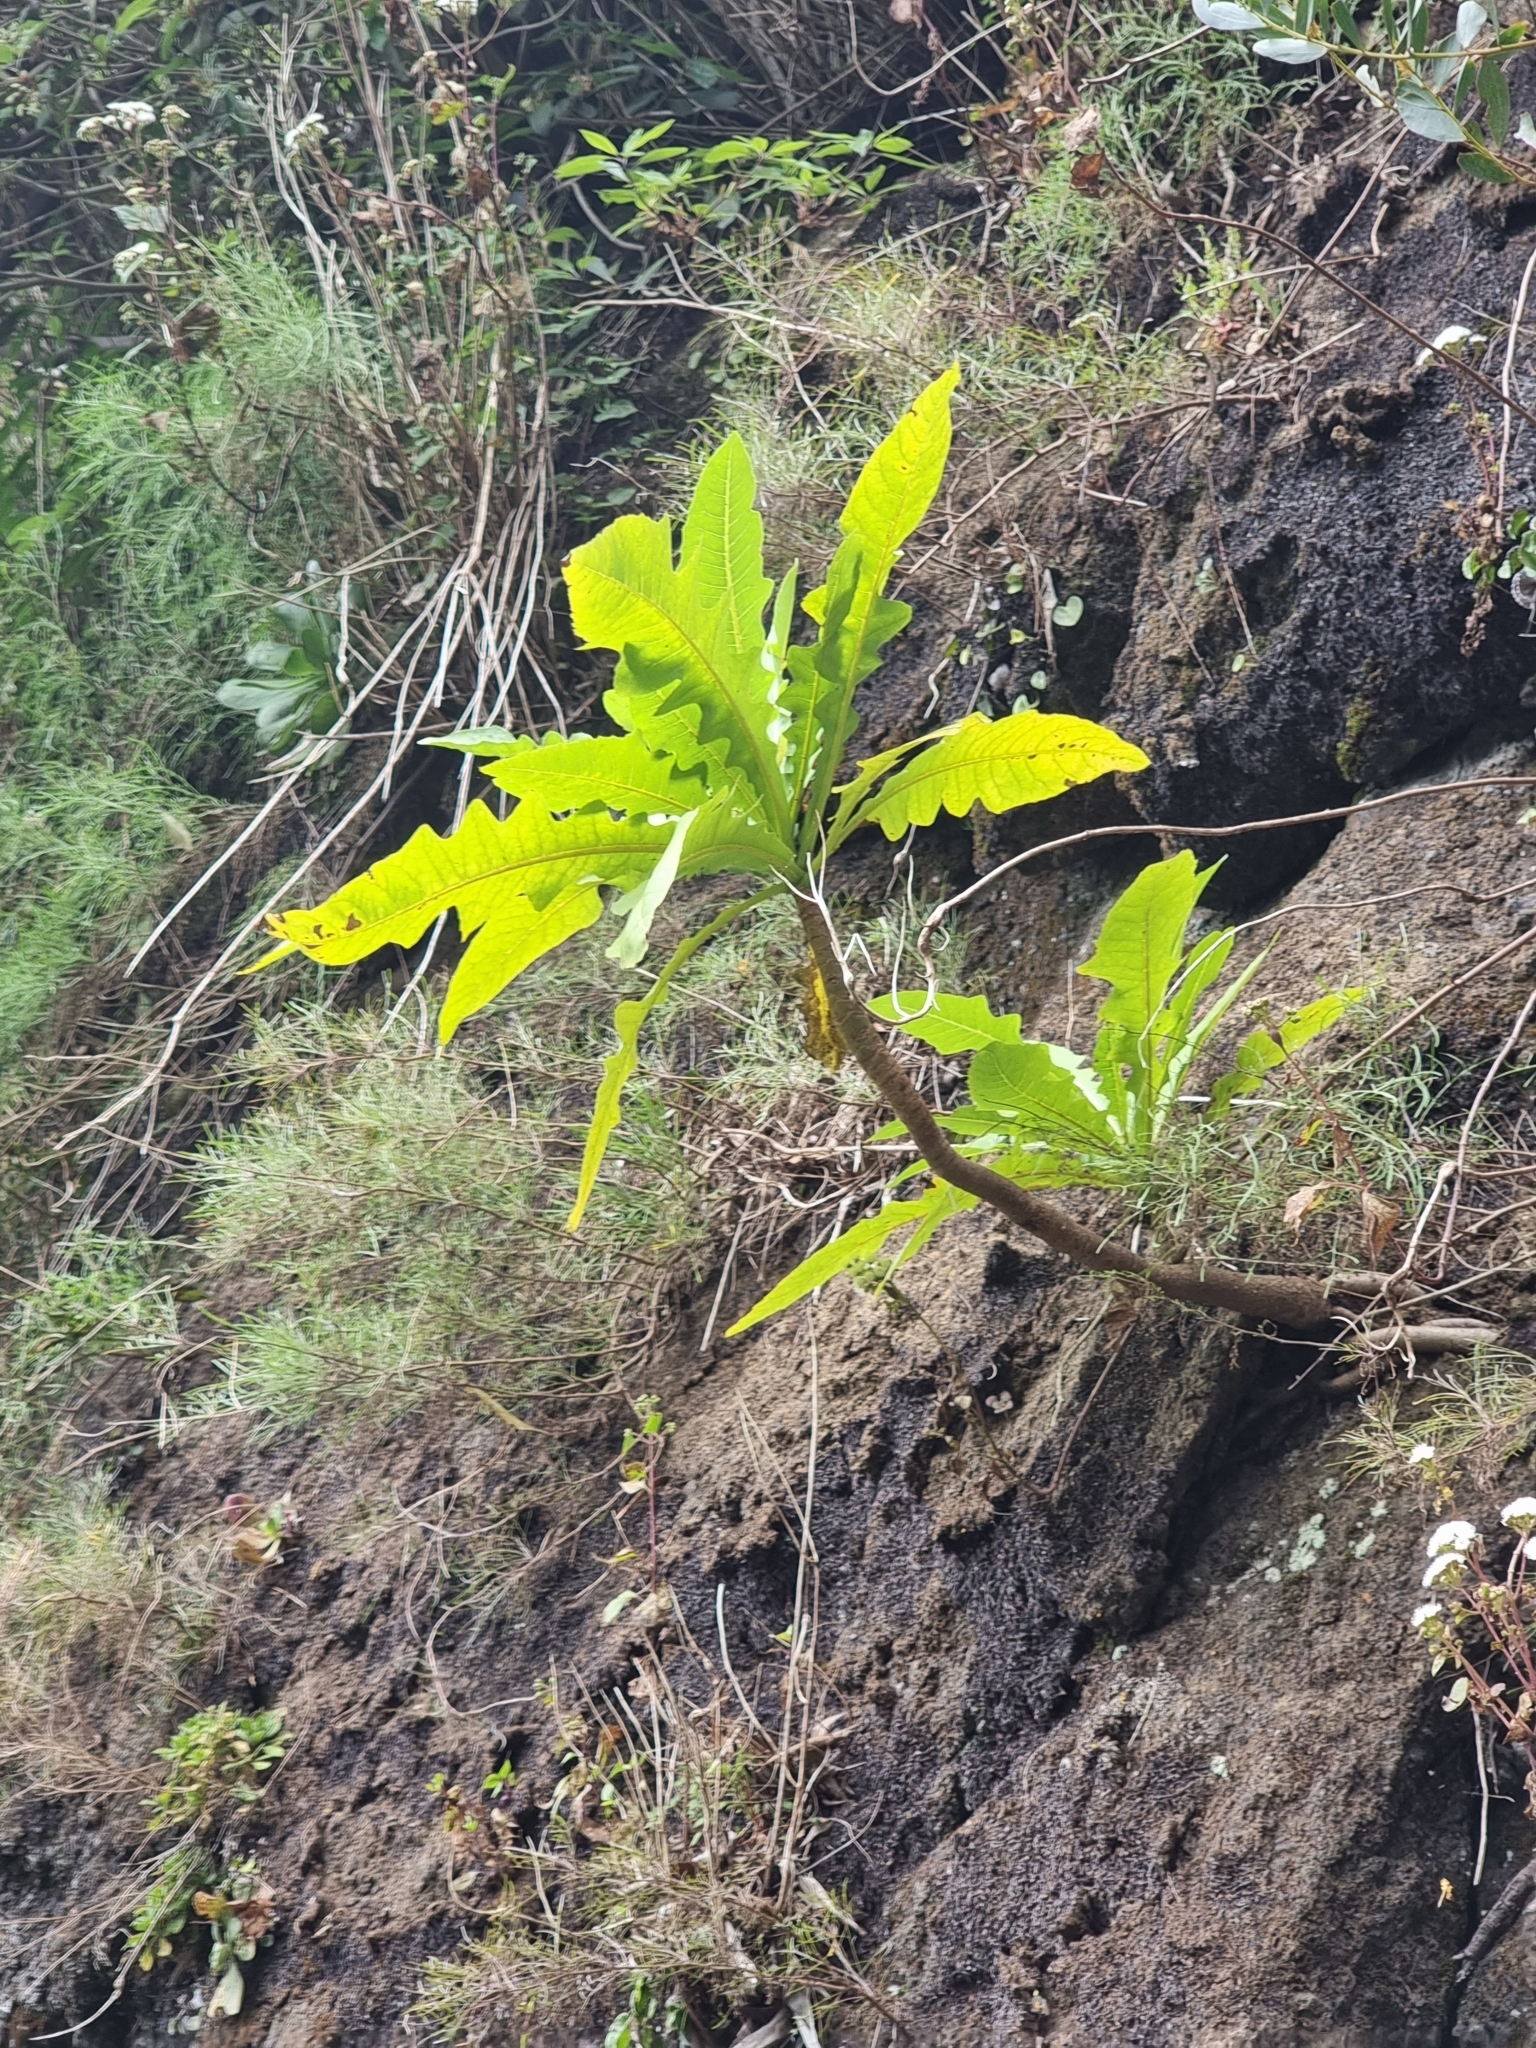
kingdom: Plantae
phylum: Tracheophyta
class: Magnoliopsida
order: Asterales
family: Asteraceae
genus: Sonchus
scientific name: Sonchus fruticosus
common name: Shrubby sow-thistle
